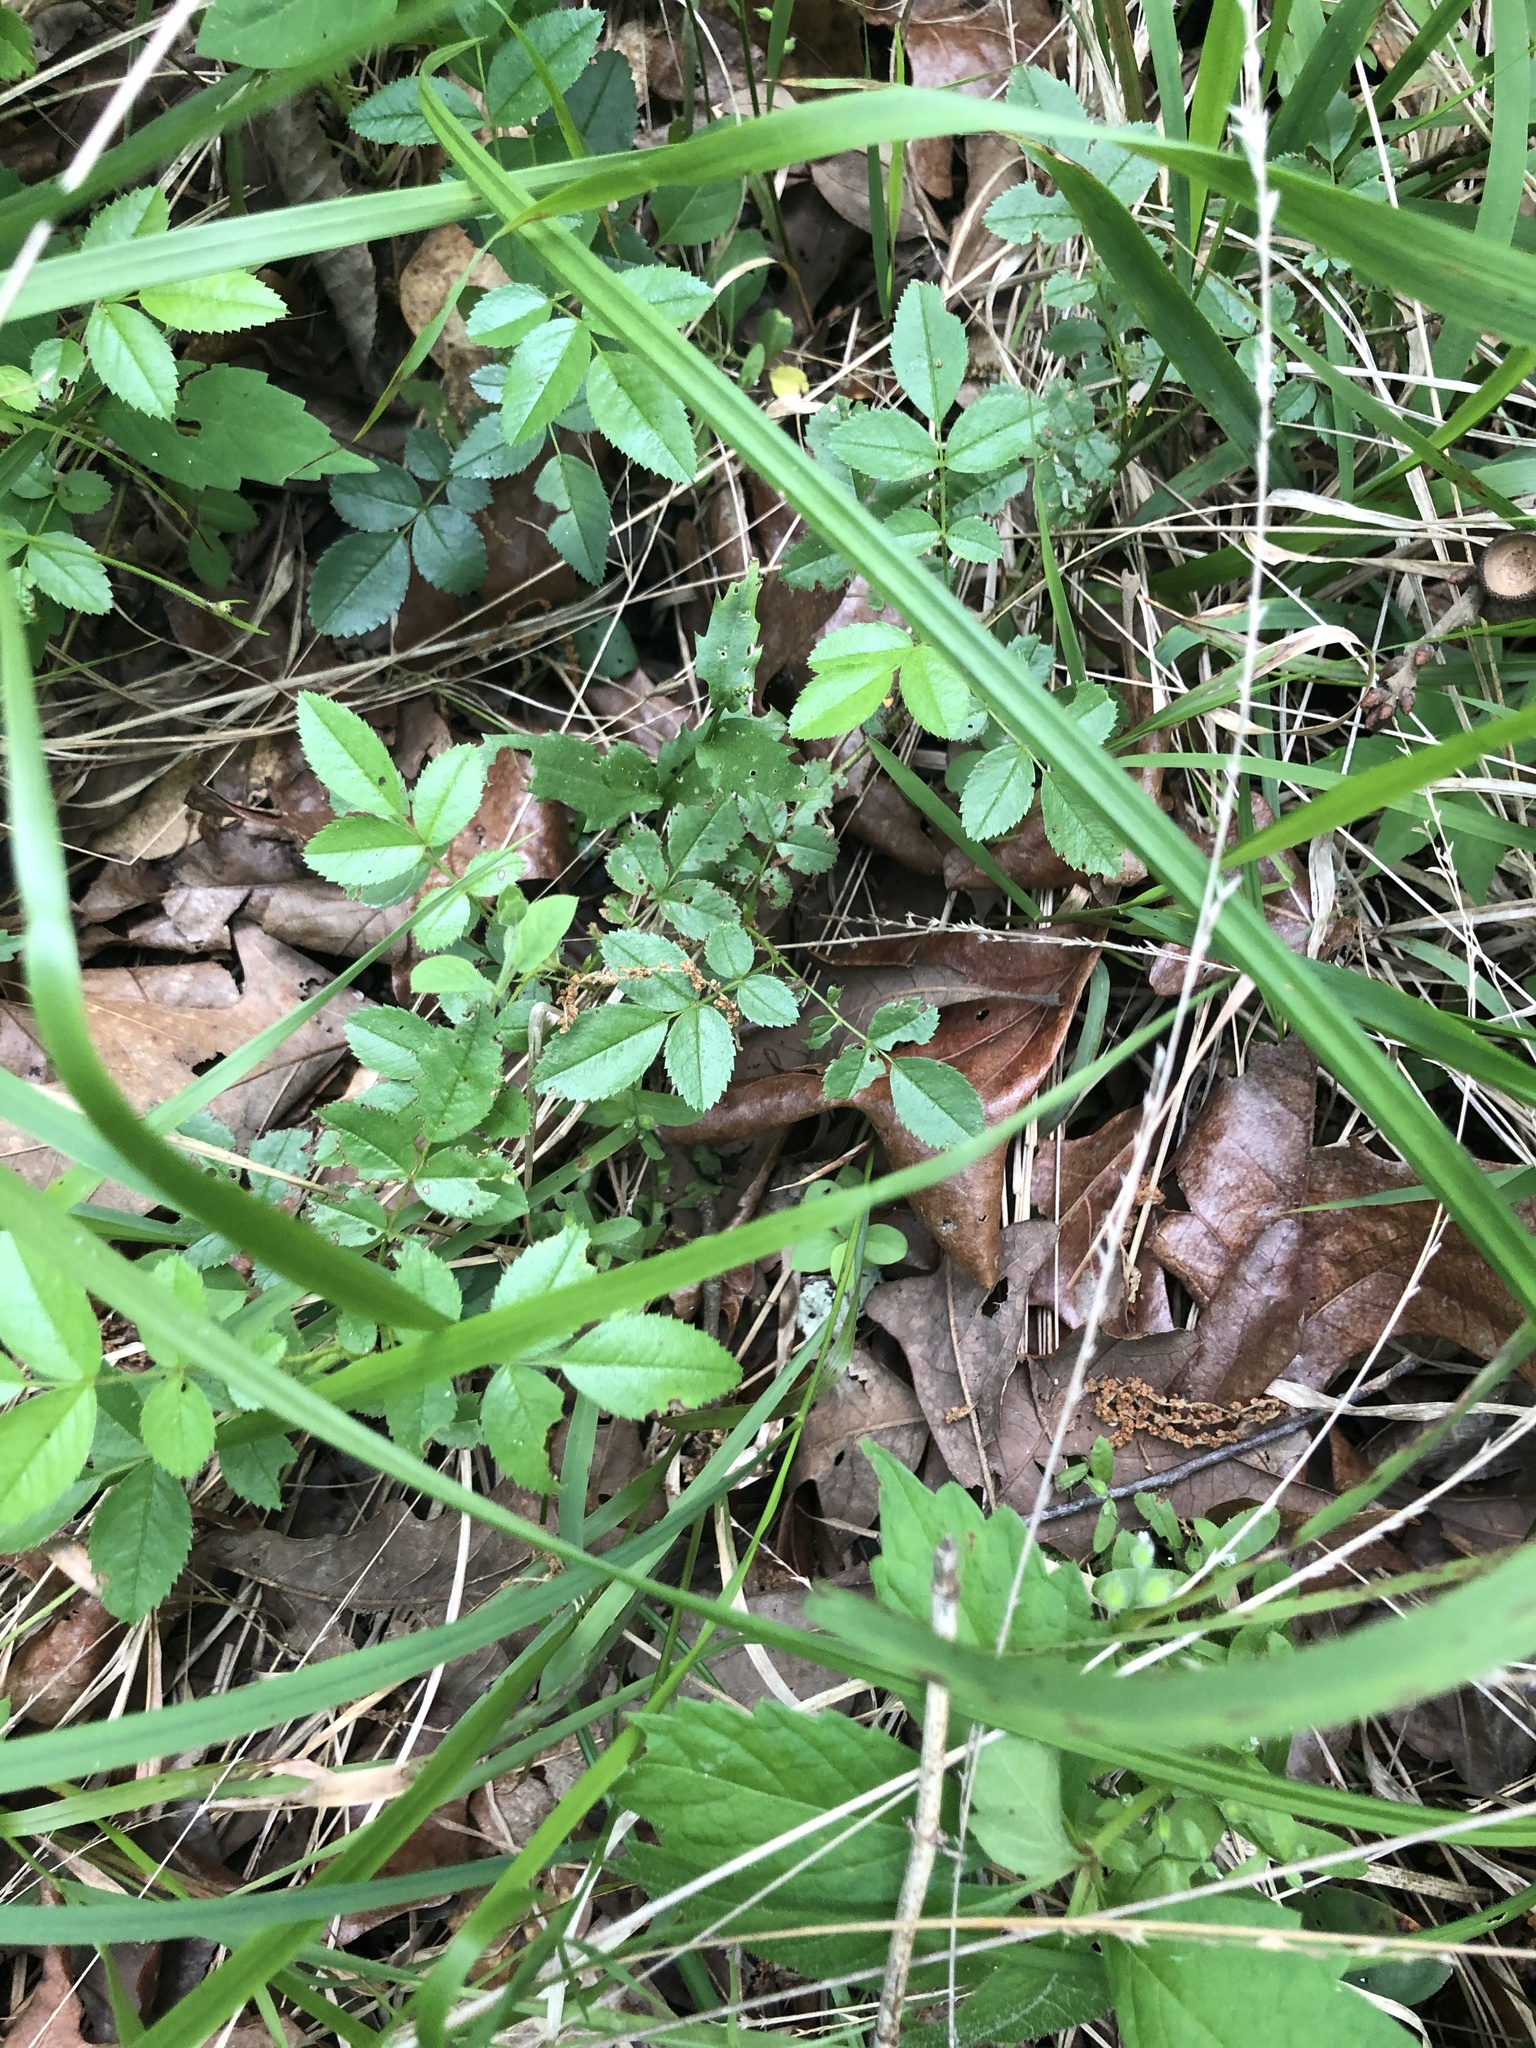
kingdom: Plantae
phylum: Tracheophyta
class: Magnoliopsida
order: Rosales
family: Rosaceae
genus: Rosa
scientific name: Rosa carolina
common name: Pasture rose
